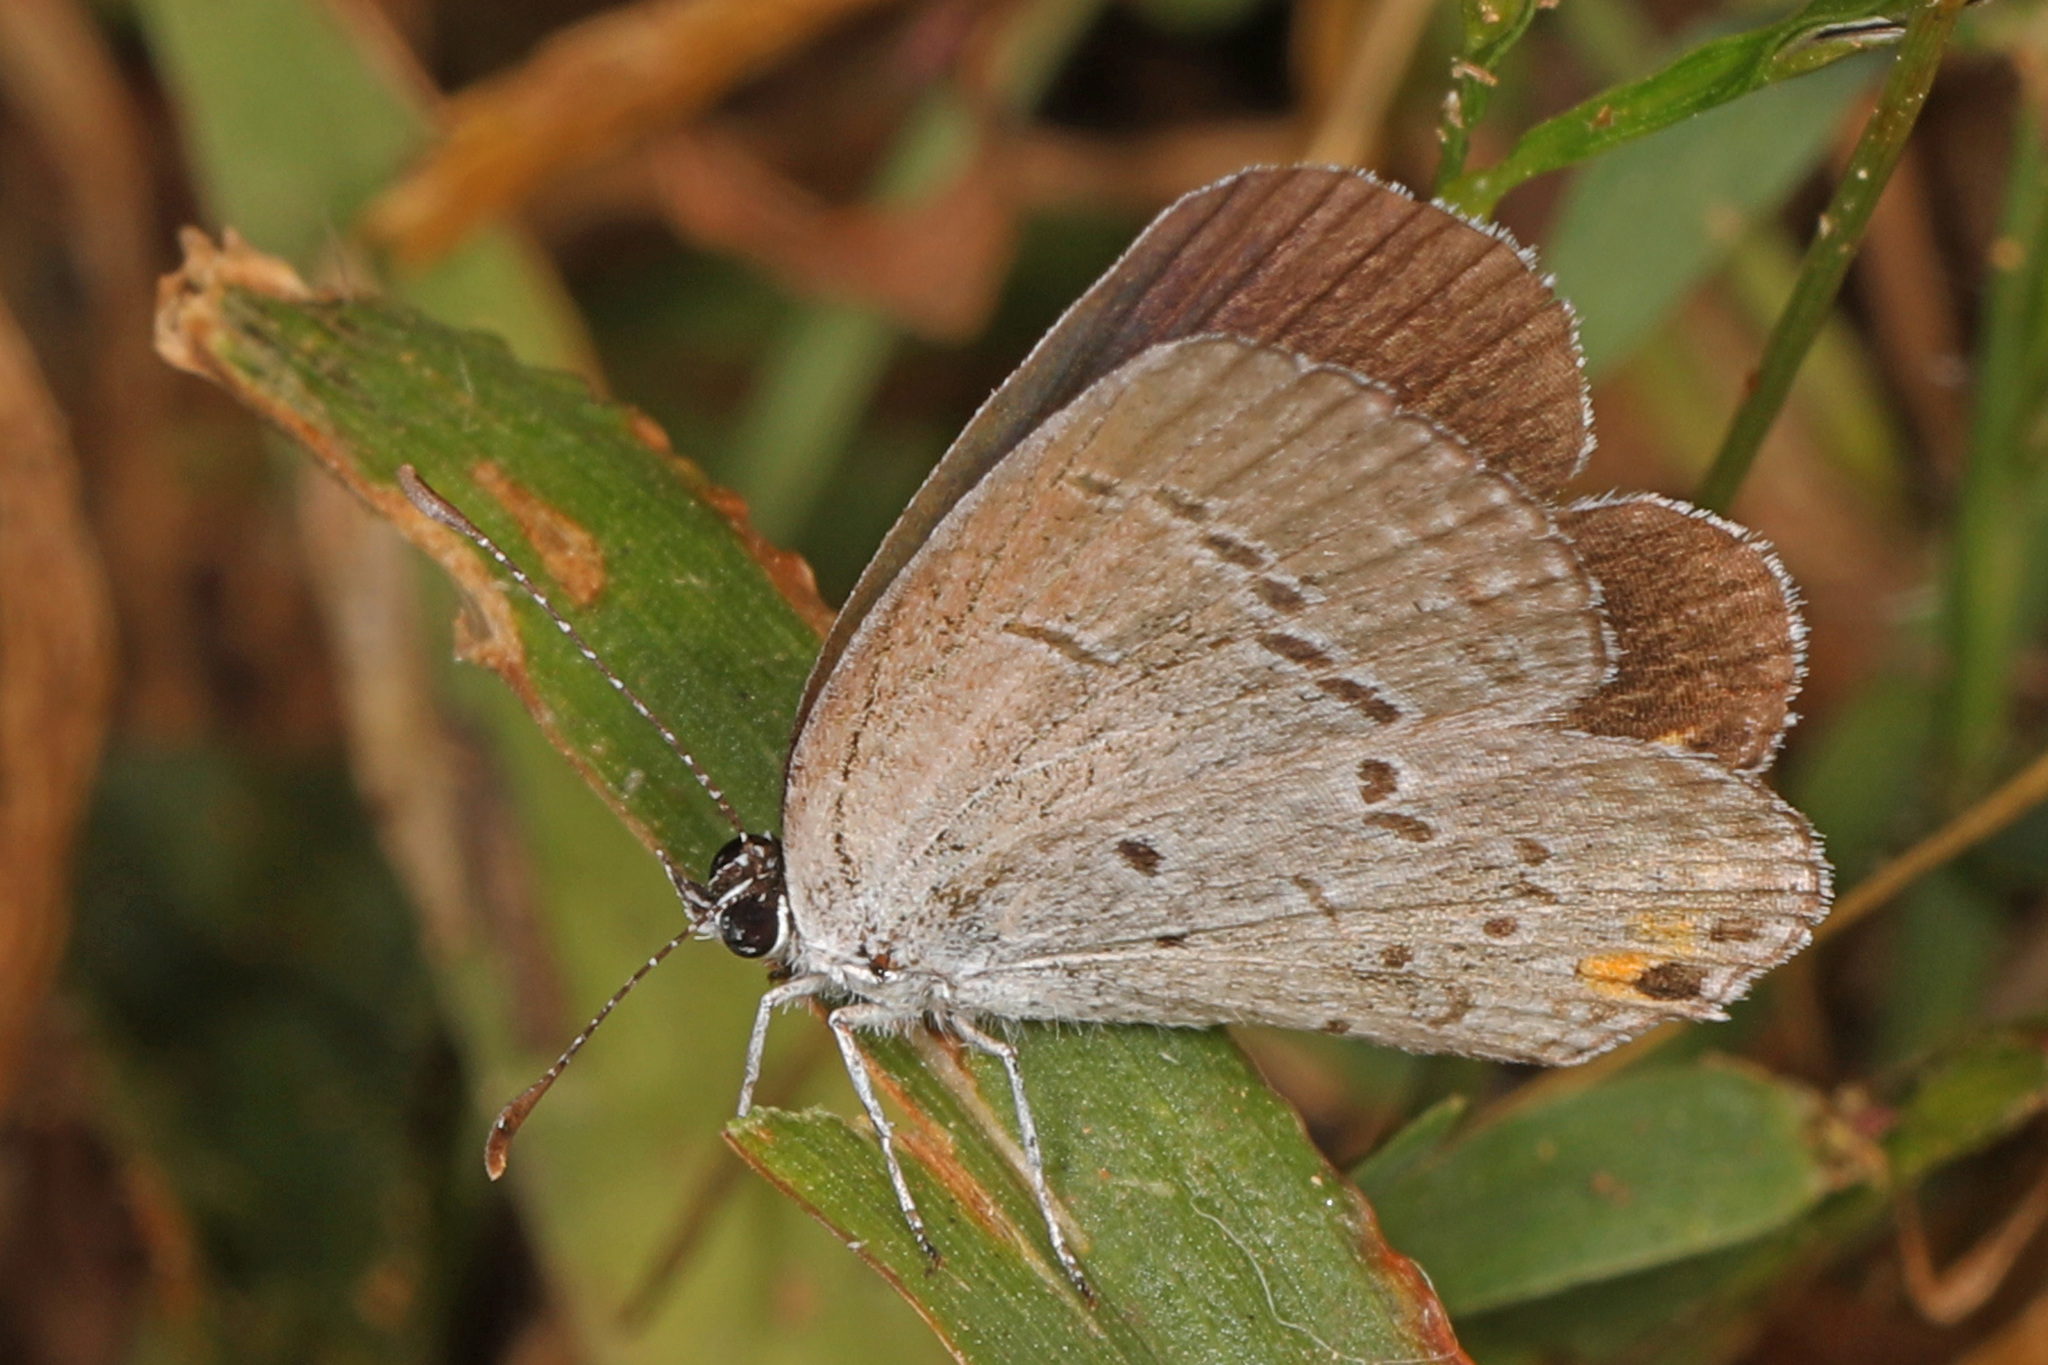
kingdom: Animalia
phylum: Arthropoda
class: Insecta
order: Lepidoptera
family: Lycaenidae
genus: Elkalyce
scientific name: Elkalyce comyntas
